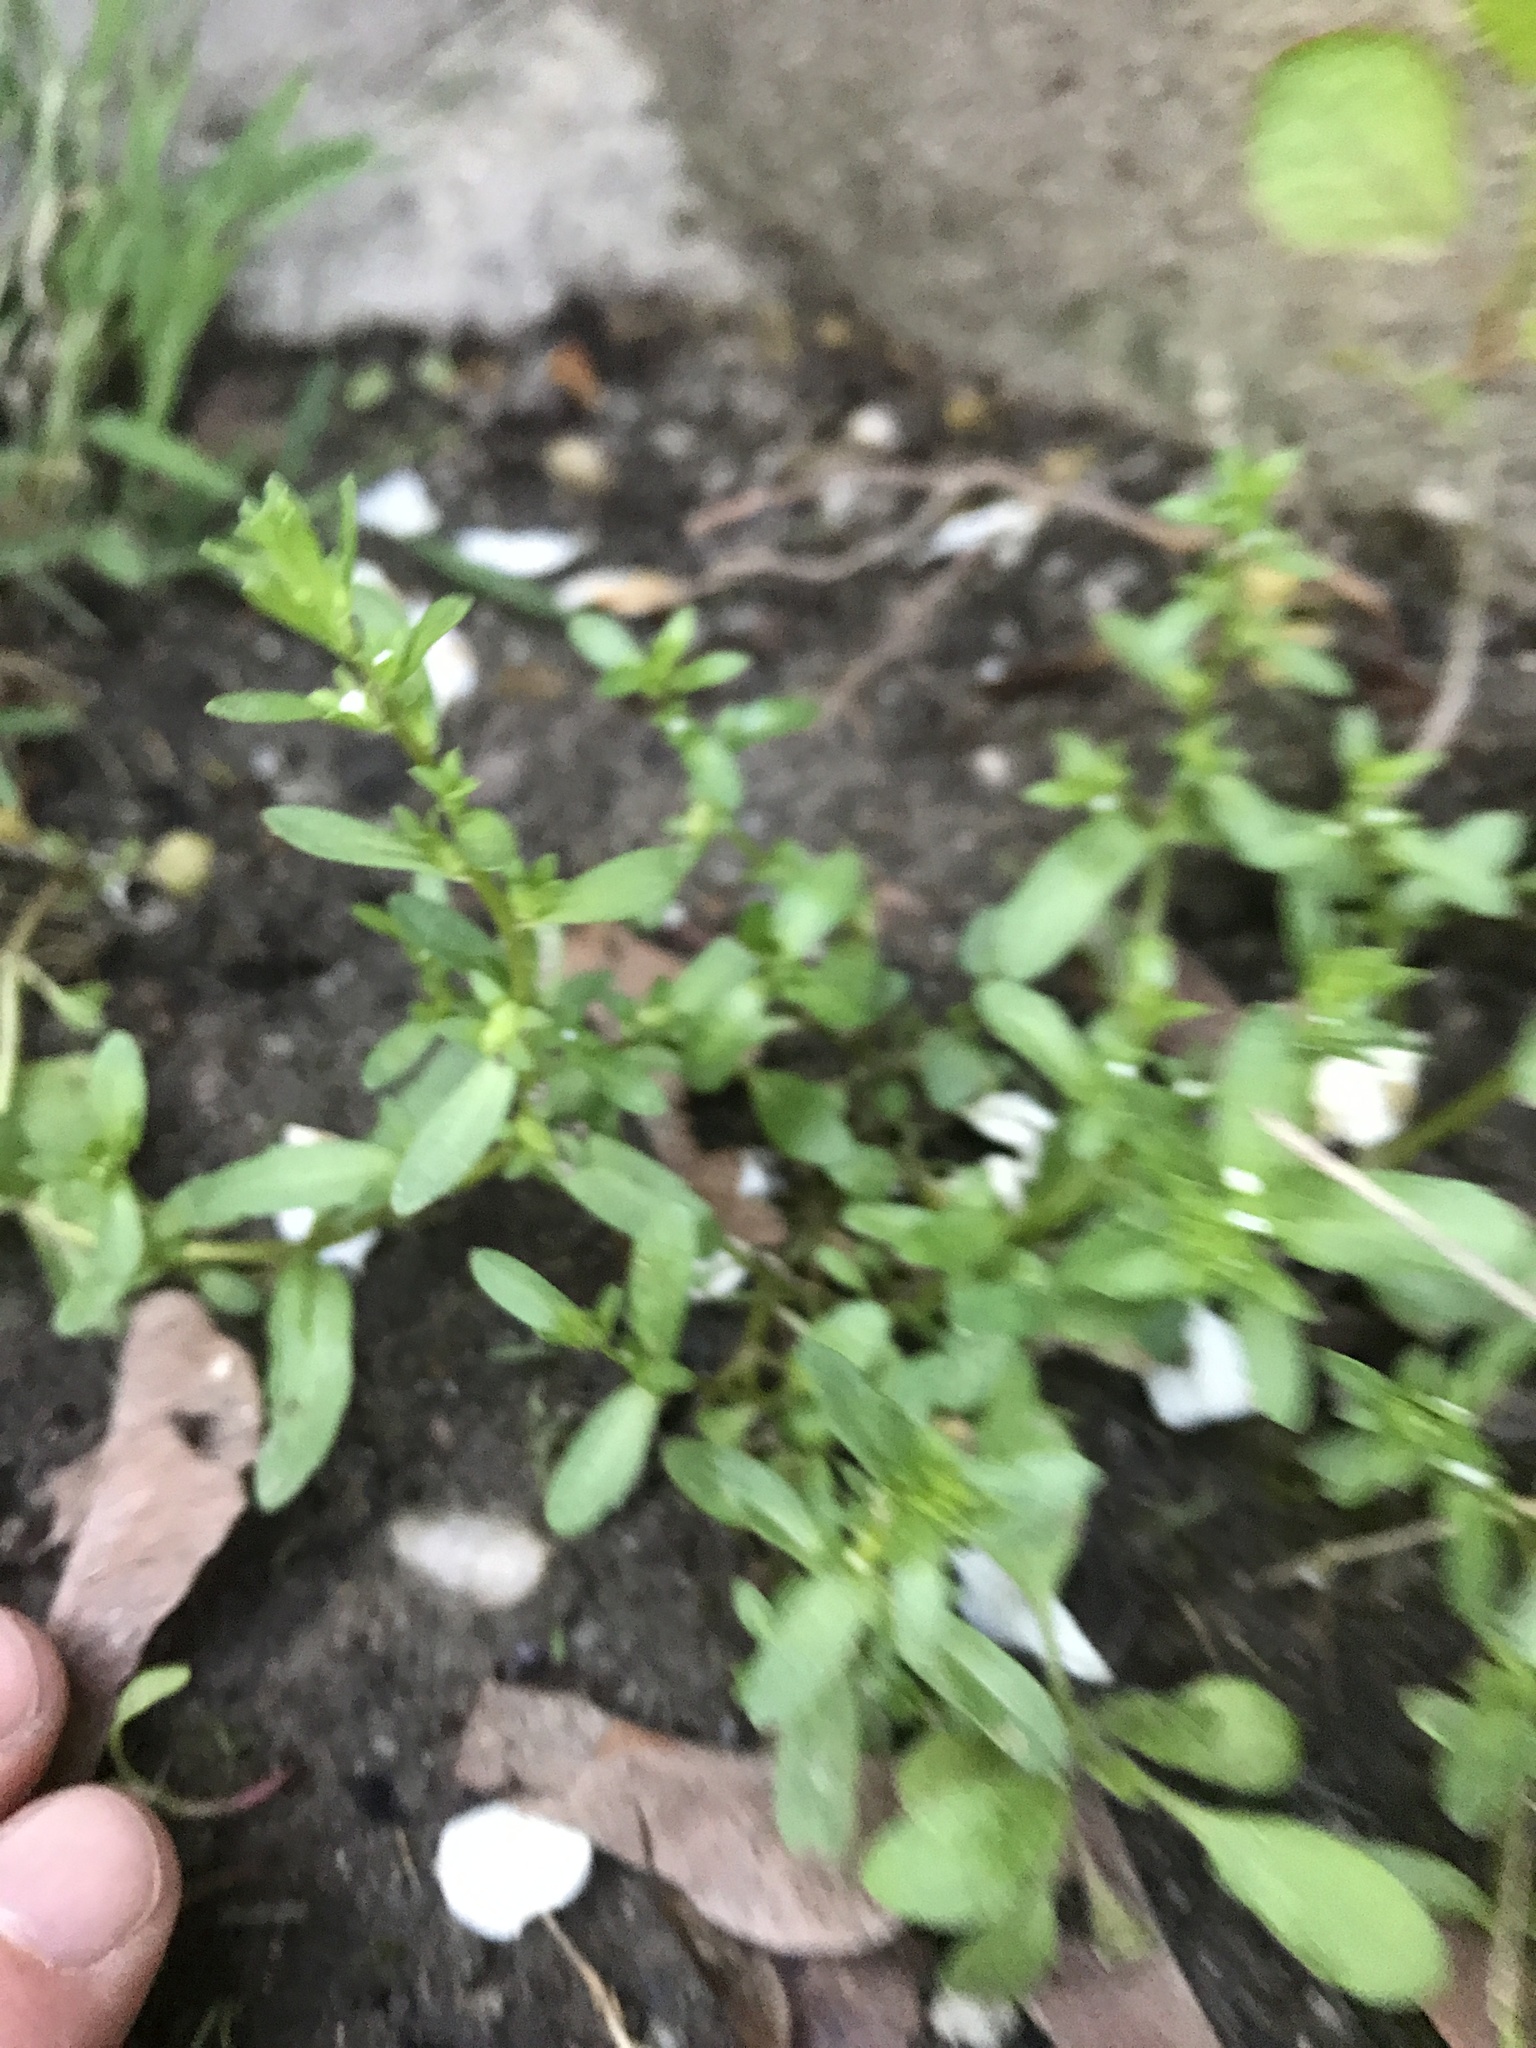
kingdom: Plantae
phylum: Tracheophyta
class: Magnoliopsida
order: Lamiales
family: Plantaginaceae
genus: Veronica
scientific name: Veronica peregrina
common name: Neckweed
